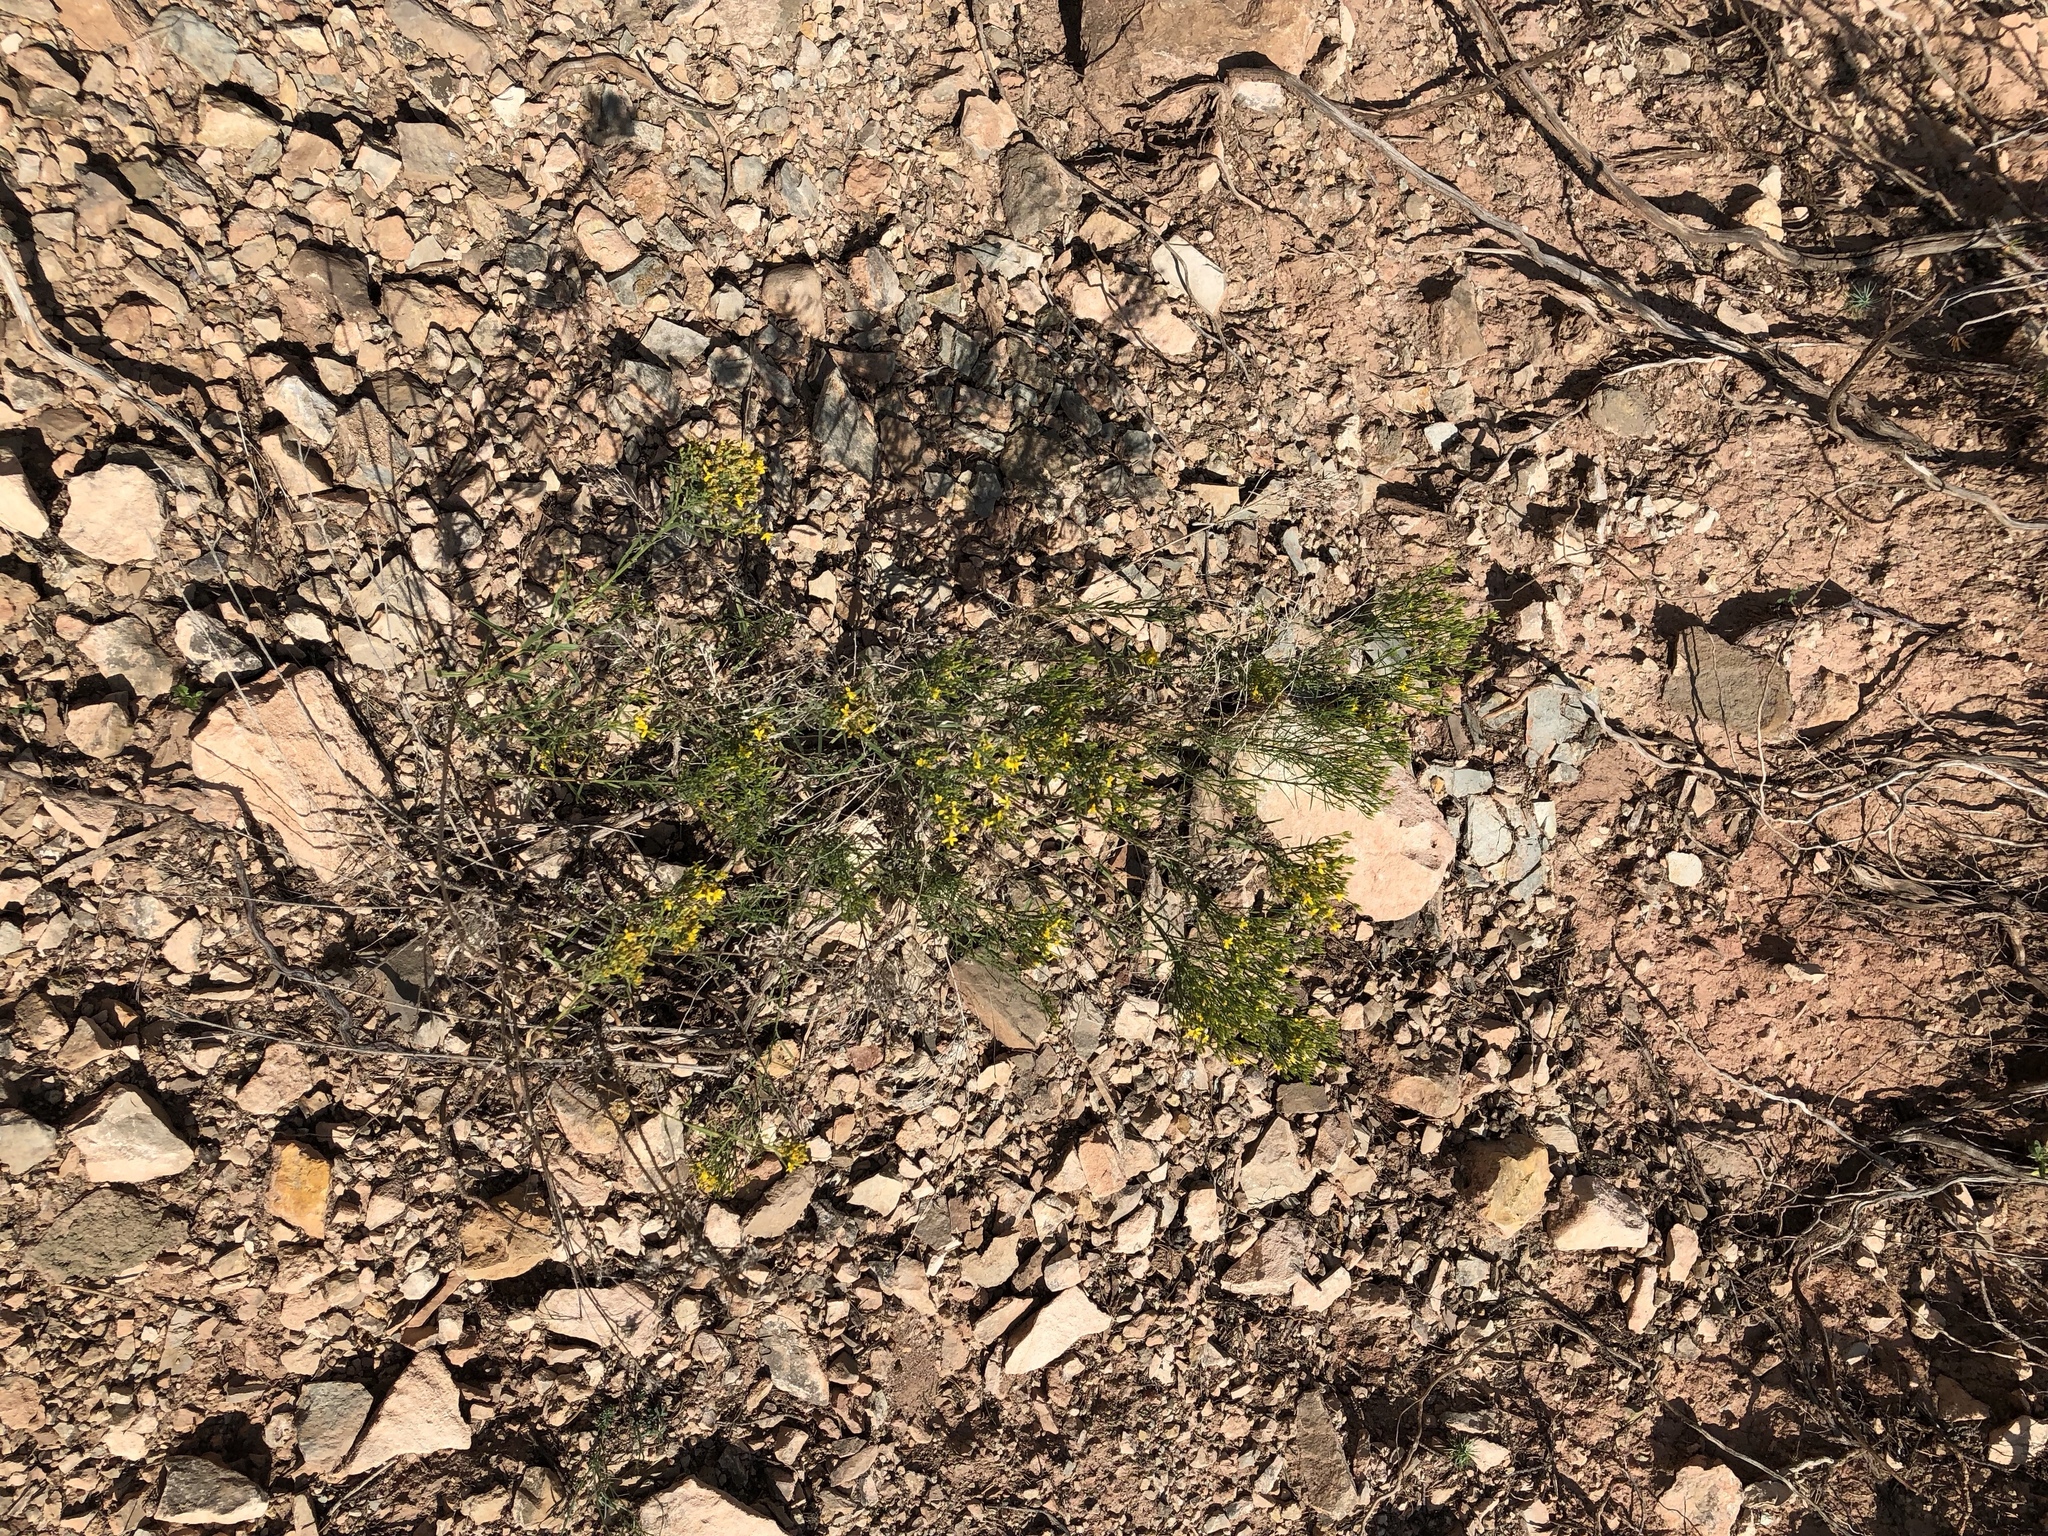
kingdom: Plantae
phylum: Tracheophyta
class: Magnoliopsida
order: Asterales
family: Asteraceae
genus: Gutierrezia
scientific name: Gutierrezia sarothrae
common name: Broom snakeweed
